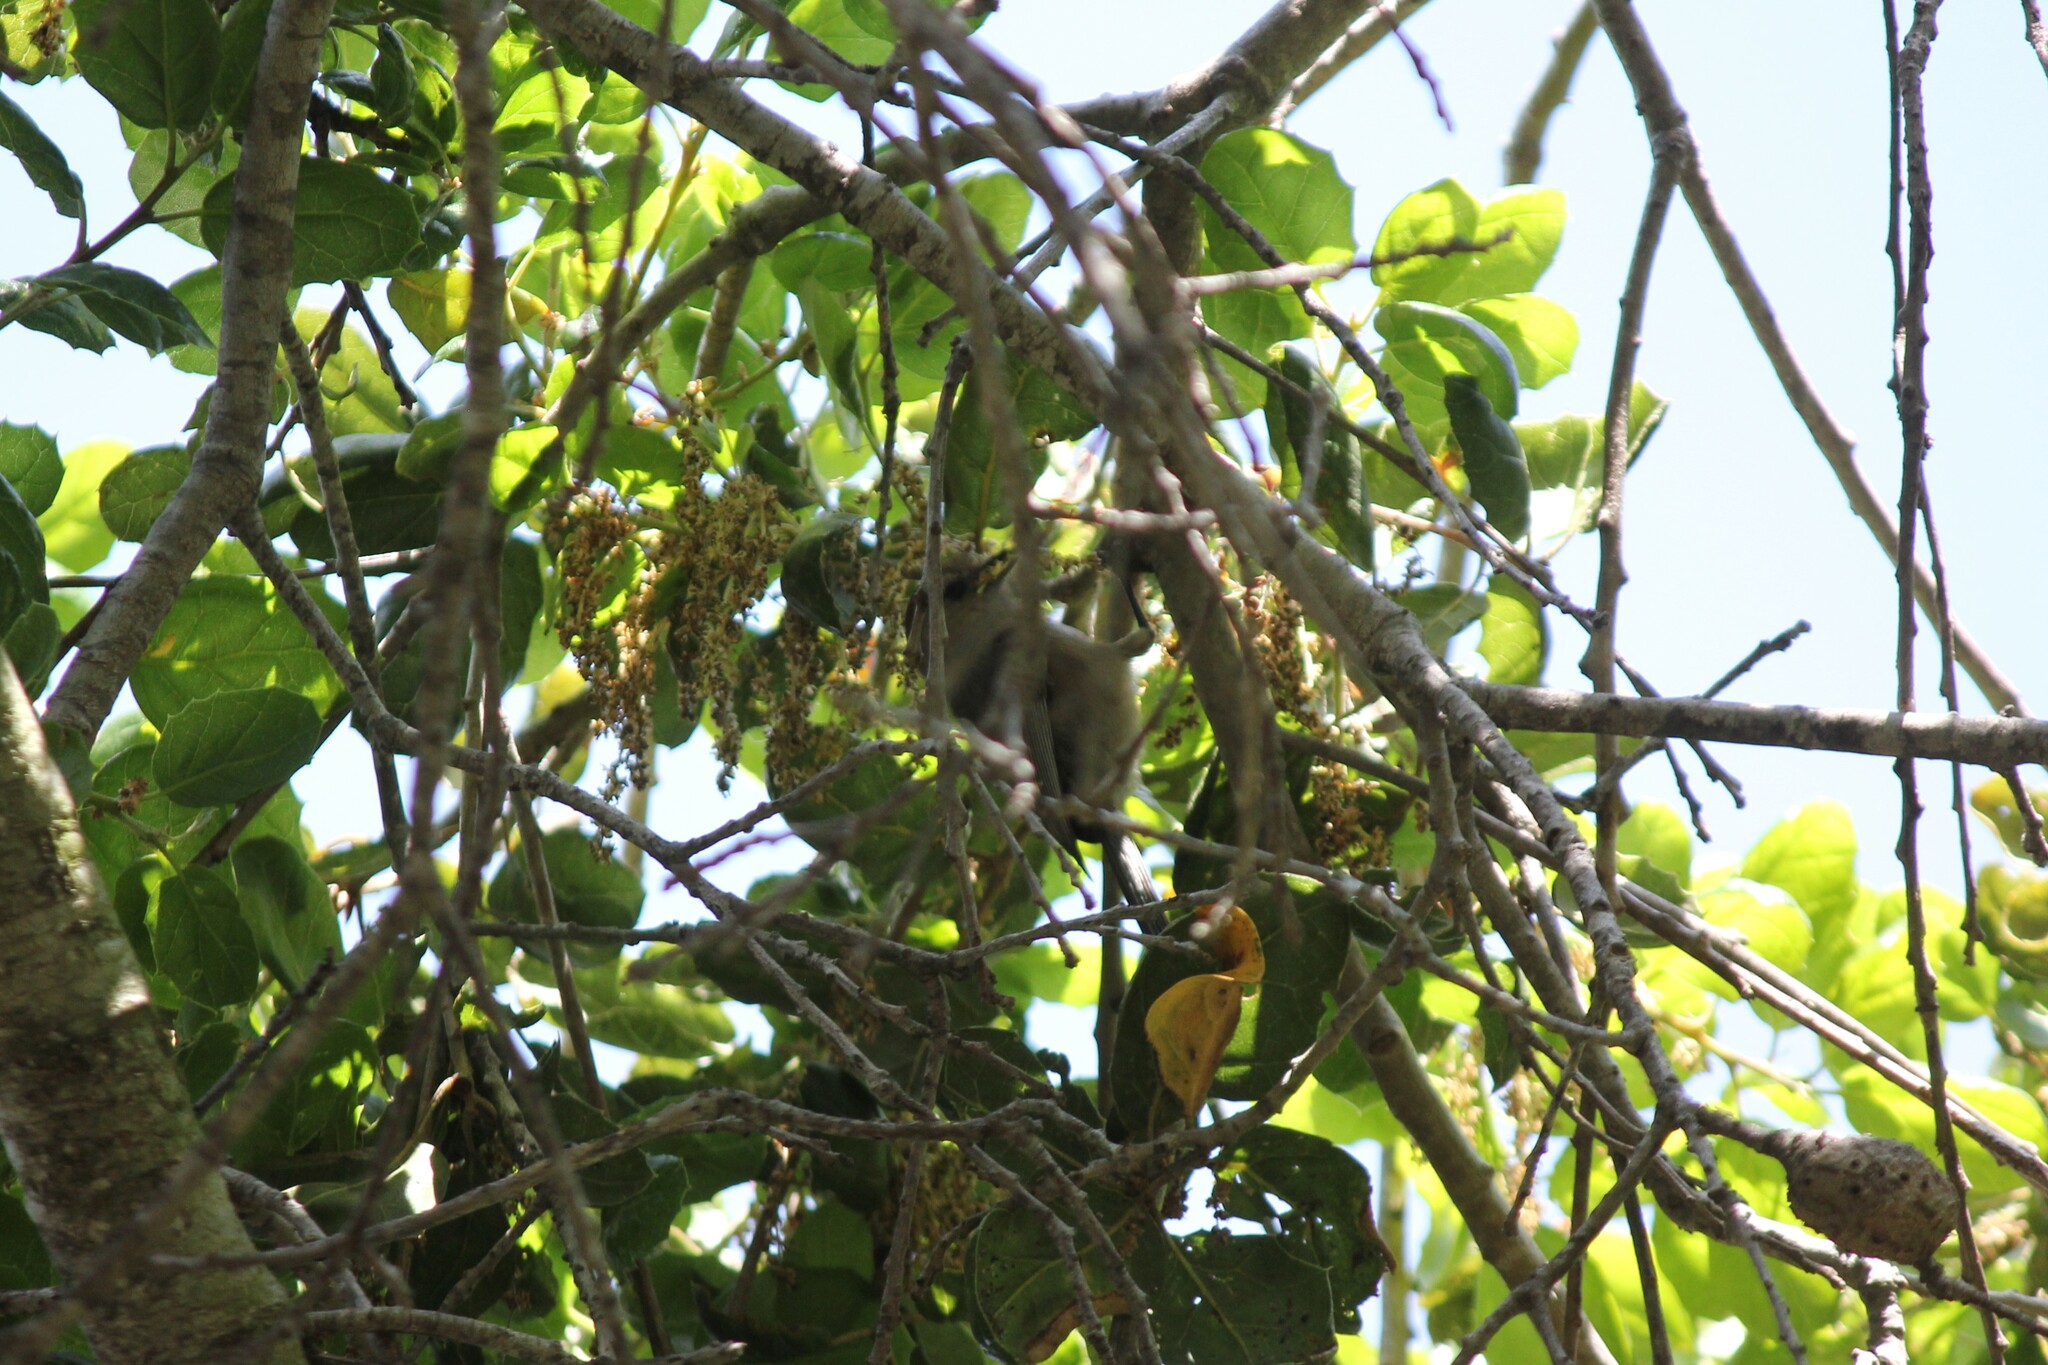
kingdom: Animalia
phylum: Chordata
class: Aves
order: Passeriformes
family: Aegithalidae
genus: Psaltriparus
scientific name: Psaltriparus minimus
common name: American bushtit
